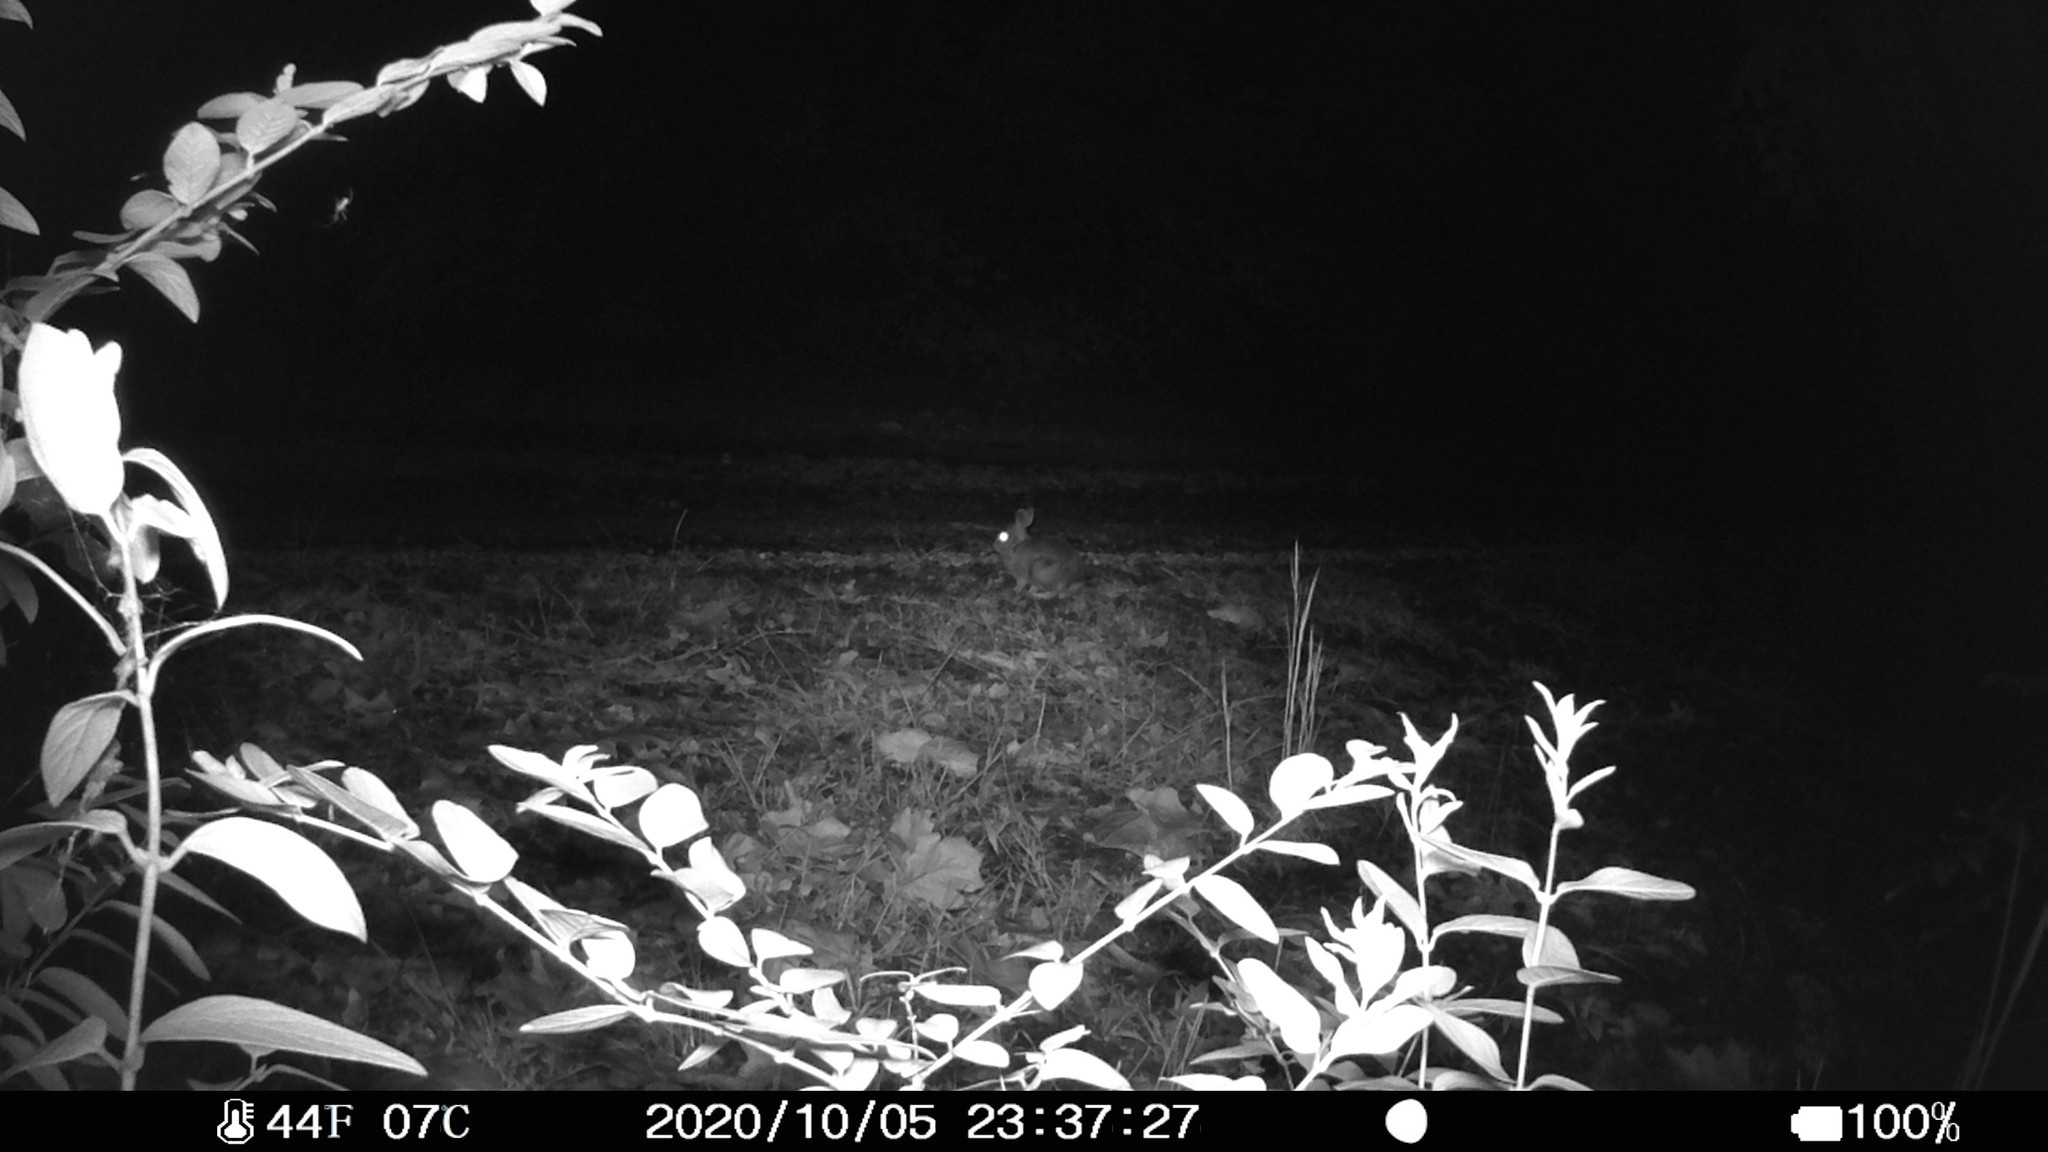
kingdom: Animalia
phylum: Chordata
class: Mammalia
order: Lagomorpha
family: Leporidae
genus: Sylvilagus
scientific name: Sylvilagus floridanus
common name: Eastern cottontail
